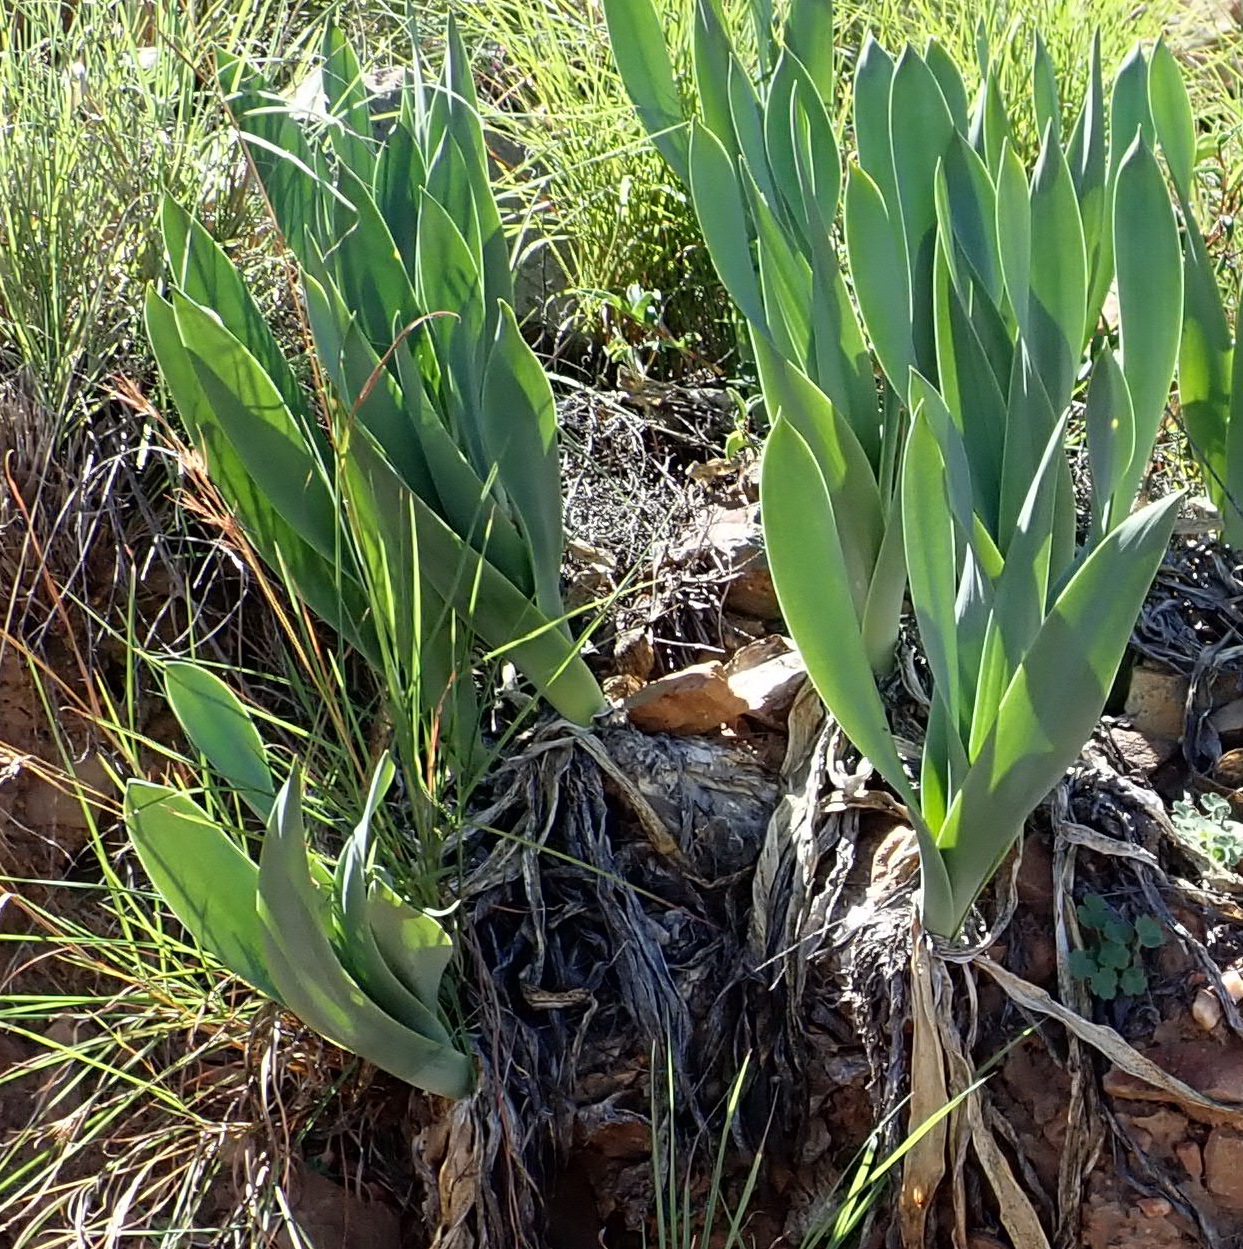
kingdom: Plantae
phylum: Tracheophyta
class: Liliopsida
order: Asparagales
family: Asparagaceae
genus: Drimia
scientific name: Drimia capensis
